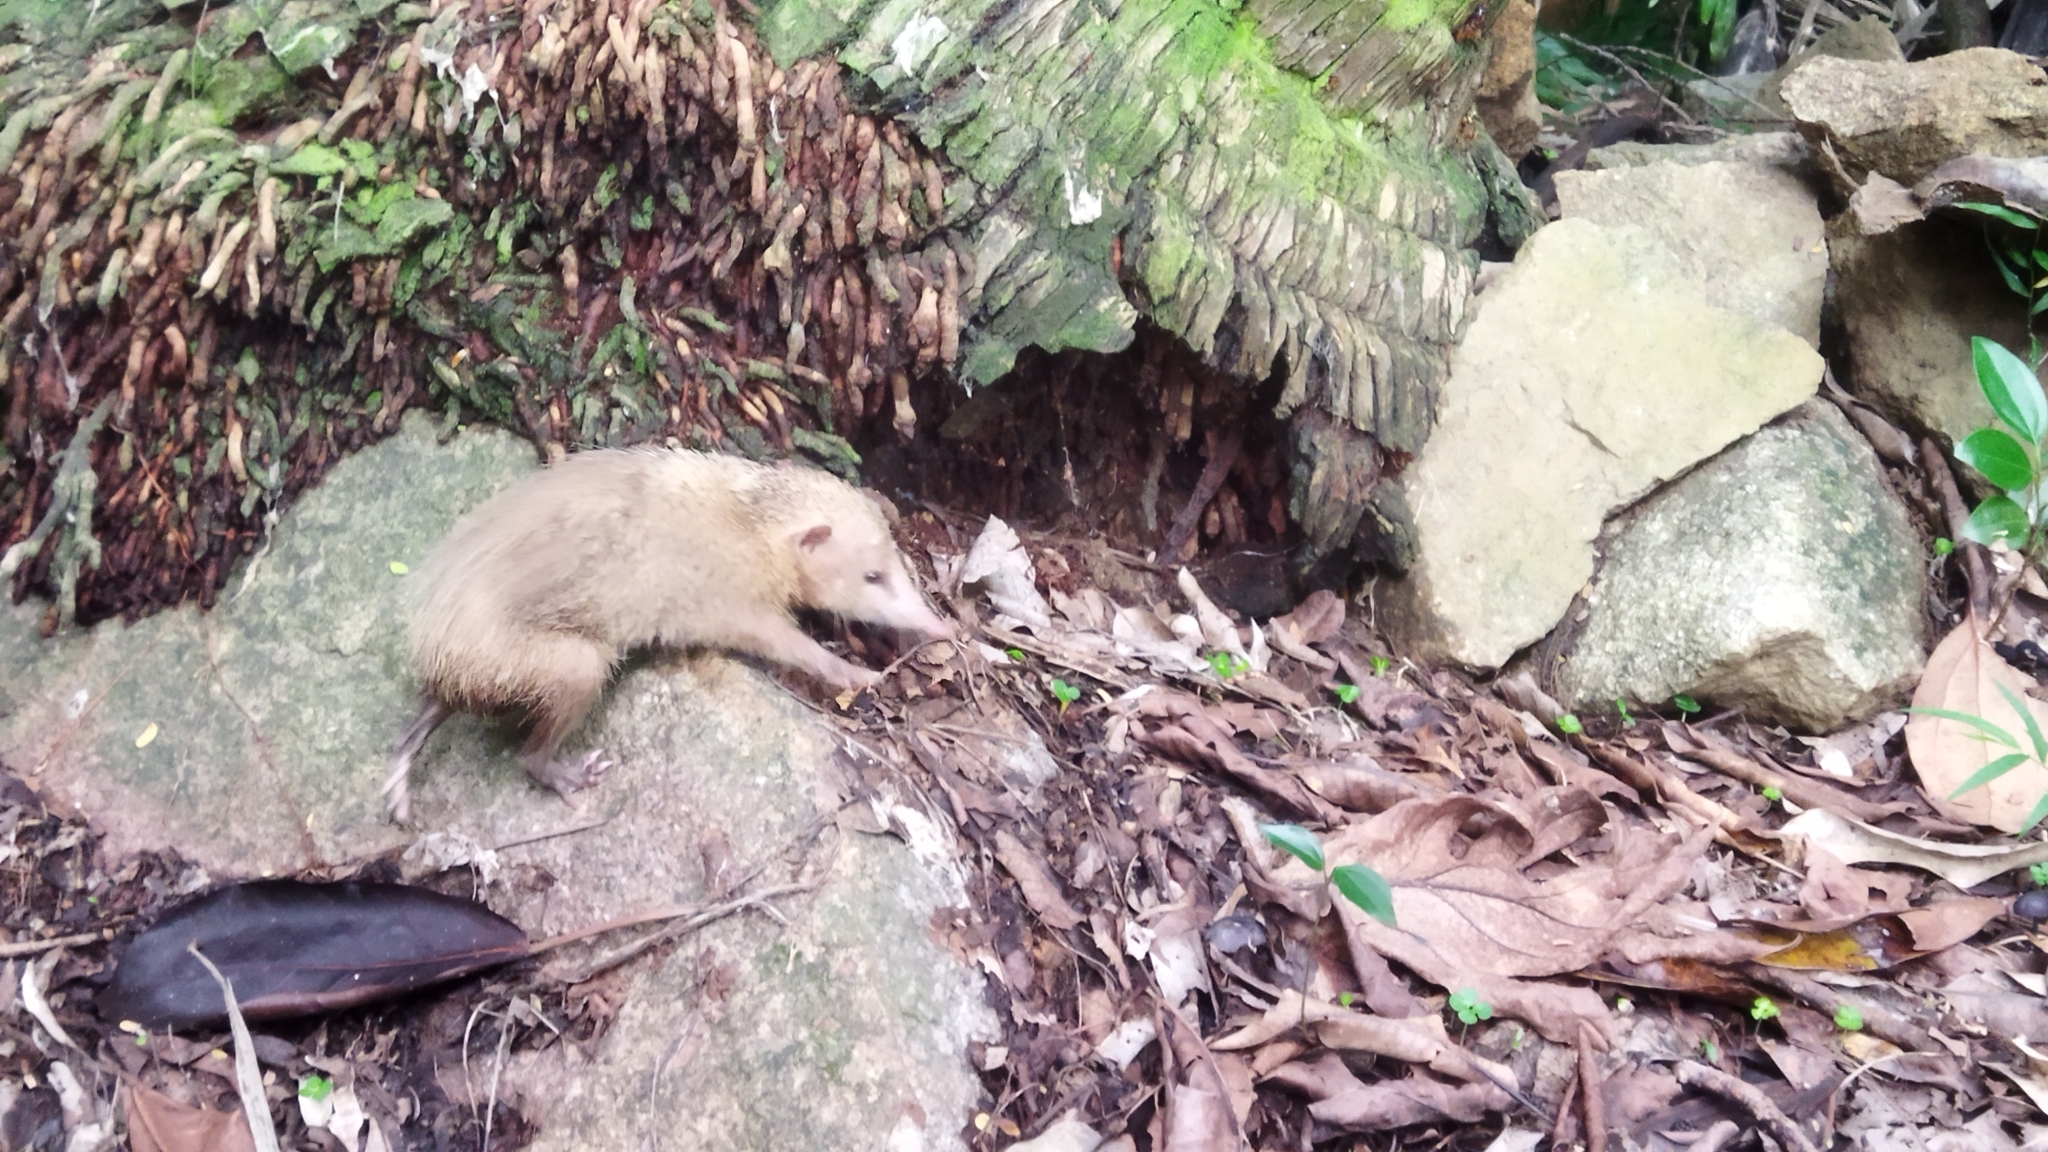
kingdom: Animalia
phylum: Chordata
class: Mammalia
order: Afrosoricida
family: Tenrecidae
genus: Tenrec
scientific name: Tenrec ecaudatus
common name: Common tenrec
